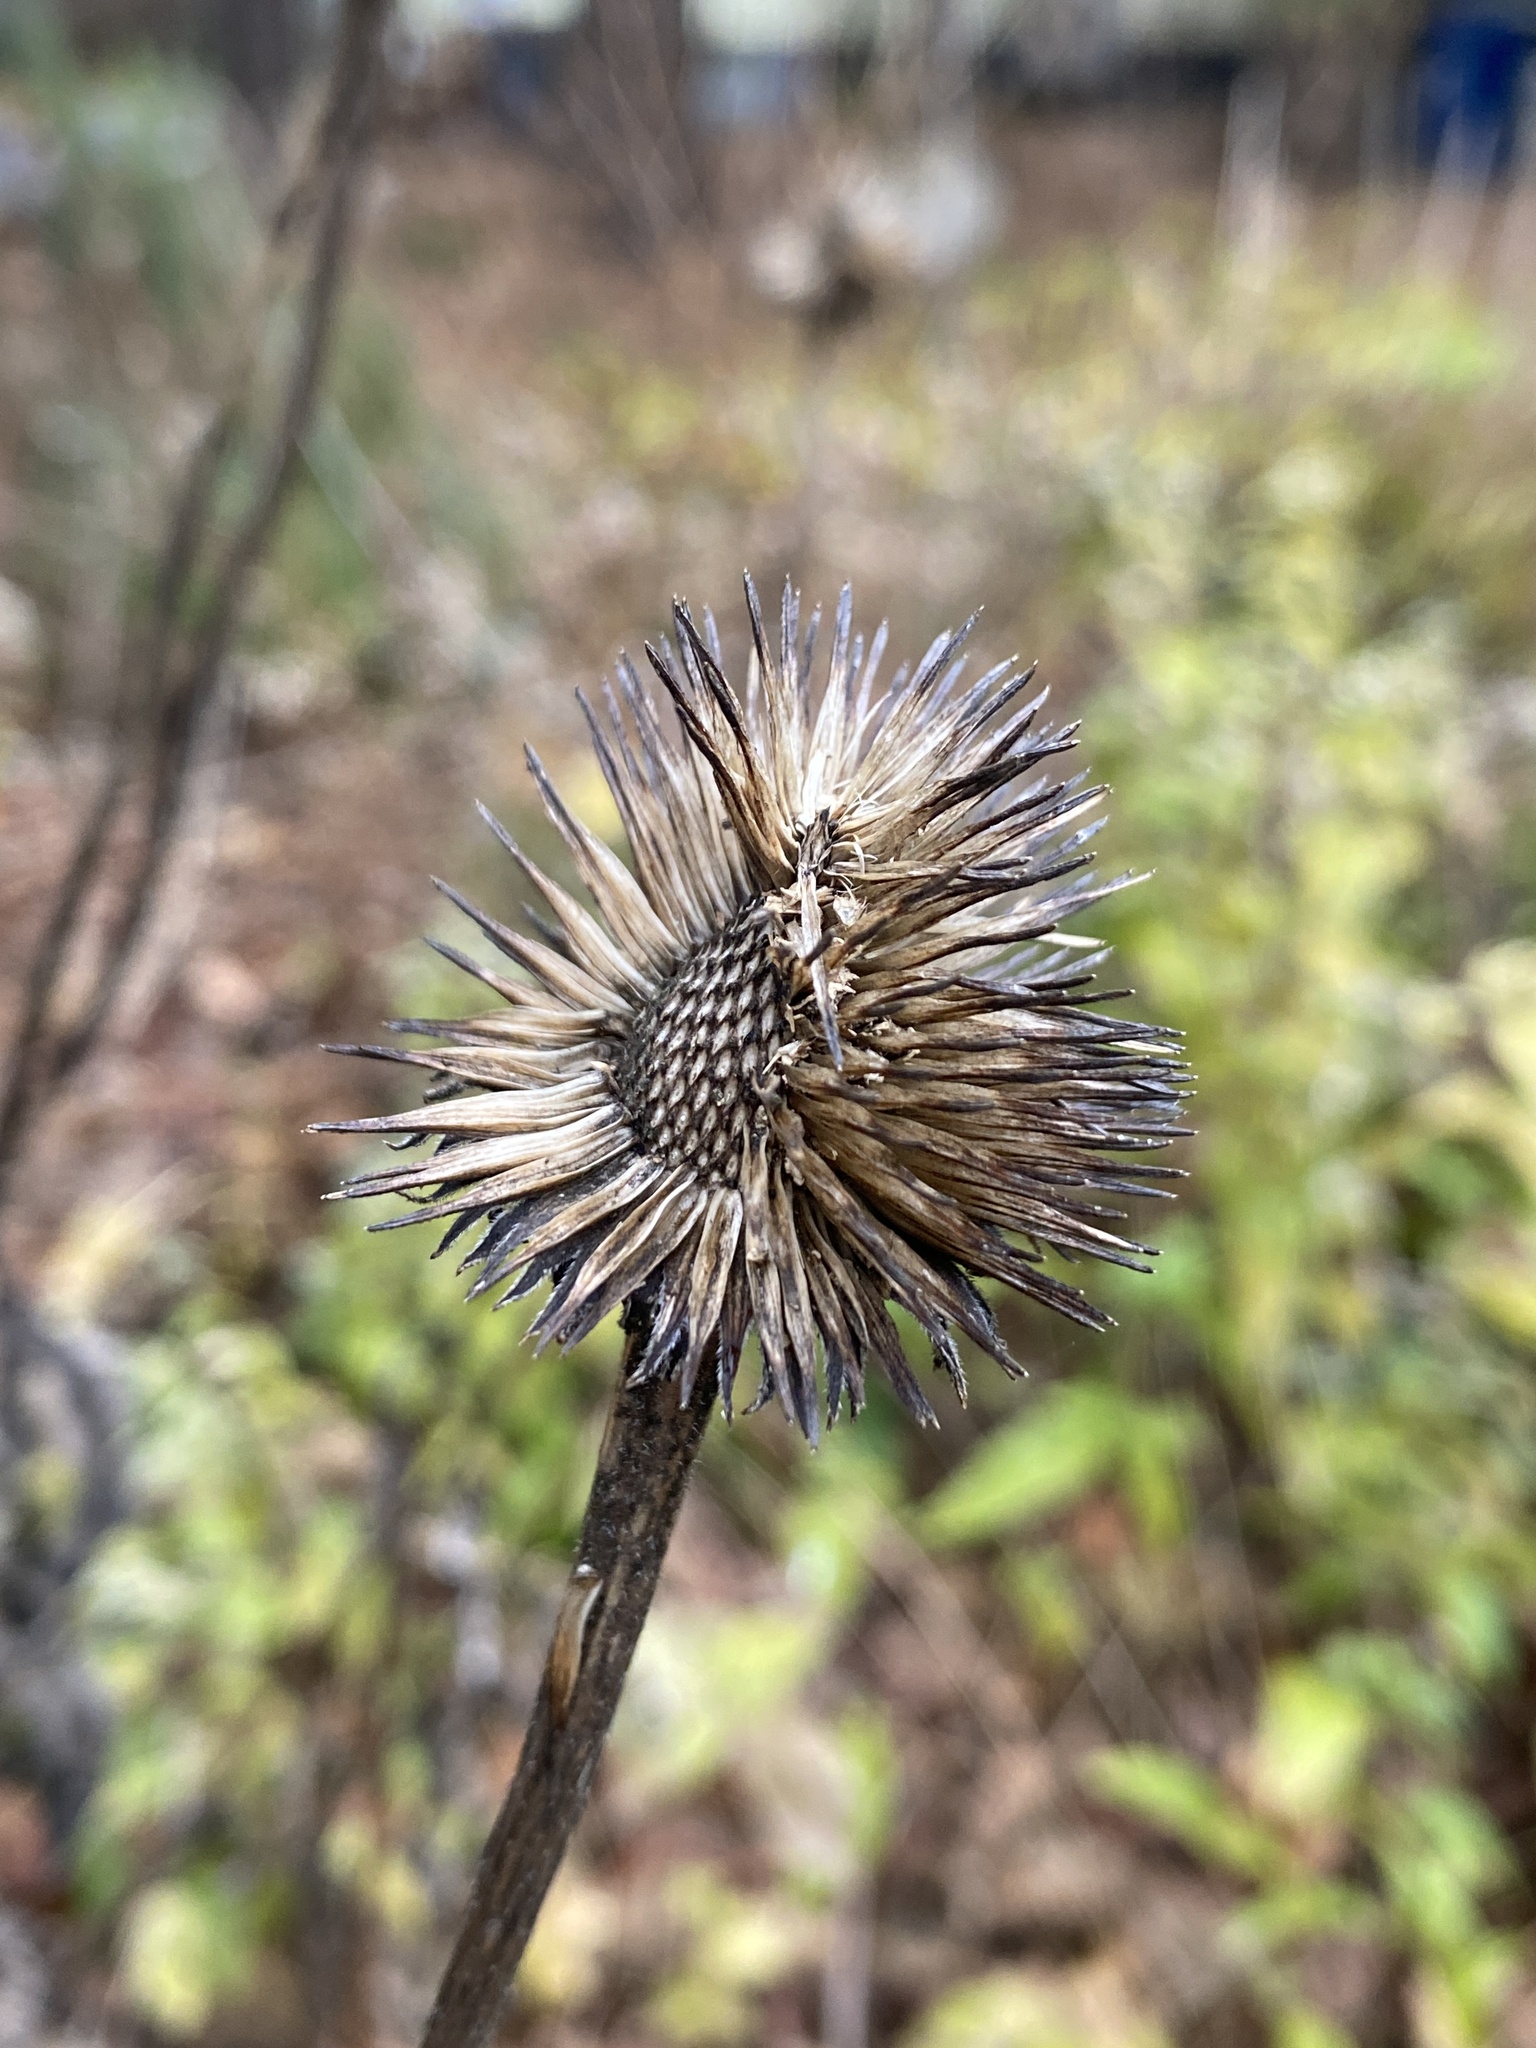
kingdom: Plantae
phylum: Tracheophyta
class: Magnoliopsida
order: Asterales
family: Asteraceae
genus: Echinacea
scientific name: Echinacea purpurea
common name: Broad-leaved purple coneflower
